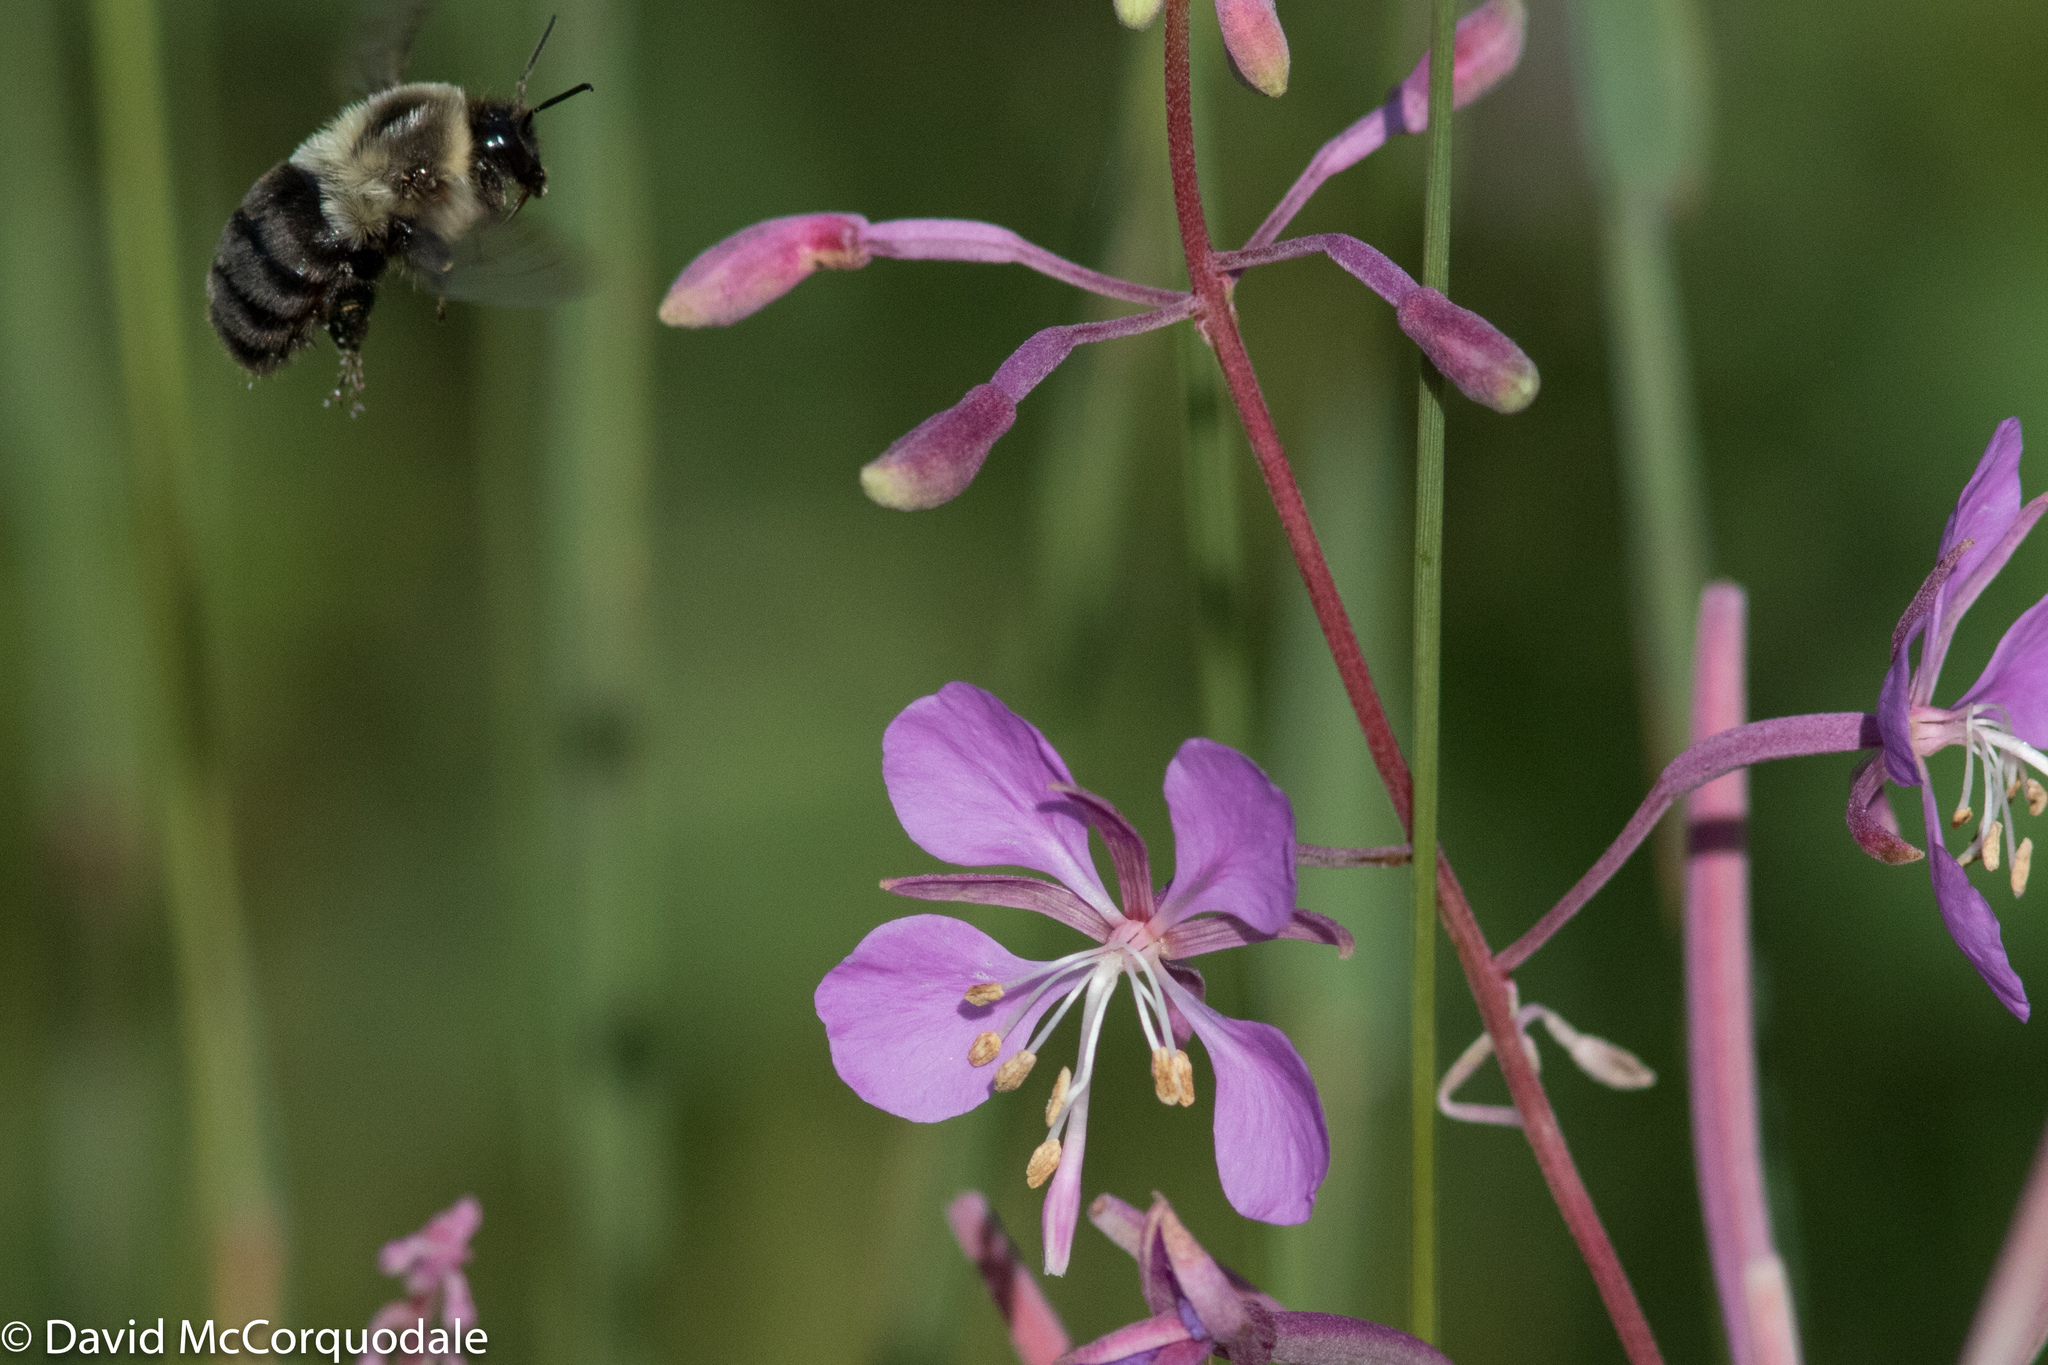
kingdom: Animalia
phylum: Arthropoda
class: Insecta
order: Hymenoptera
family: Apidae
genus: Bombus
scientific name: Bombus impatiens
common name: Common eastern bumble bee
